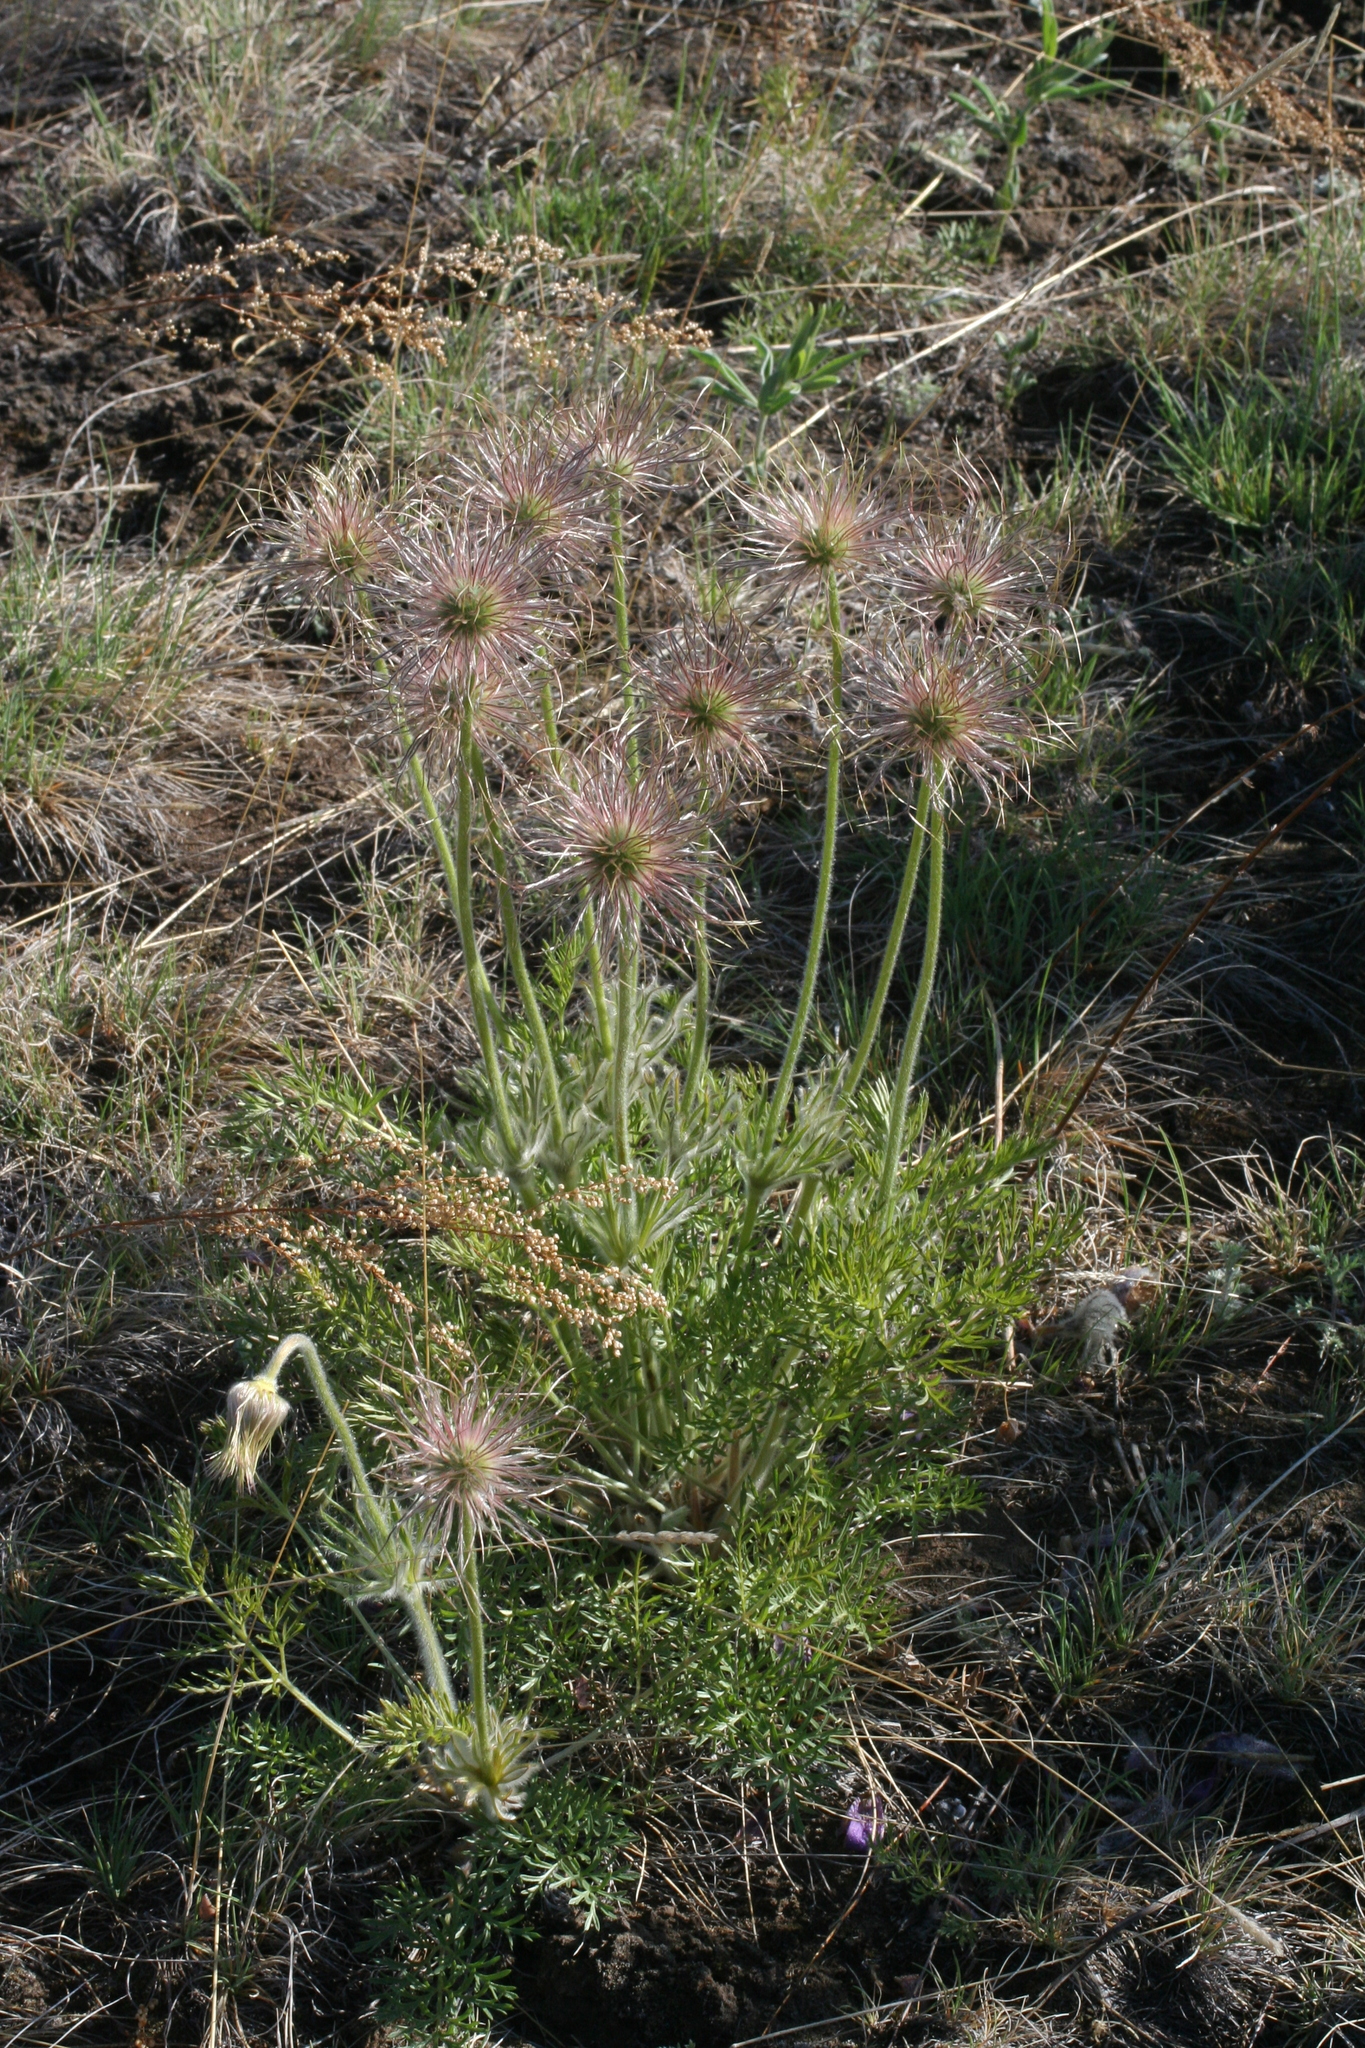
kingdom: Plantae
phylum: Tracheophyta
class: Magnoliopsida
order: Ranunculales
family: Ranunculaceae
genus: Pulsatilla
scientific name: Pulsatilla turczaninovii
